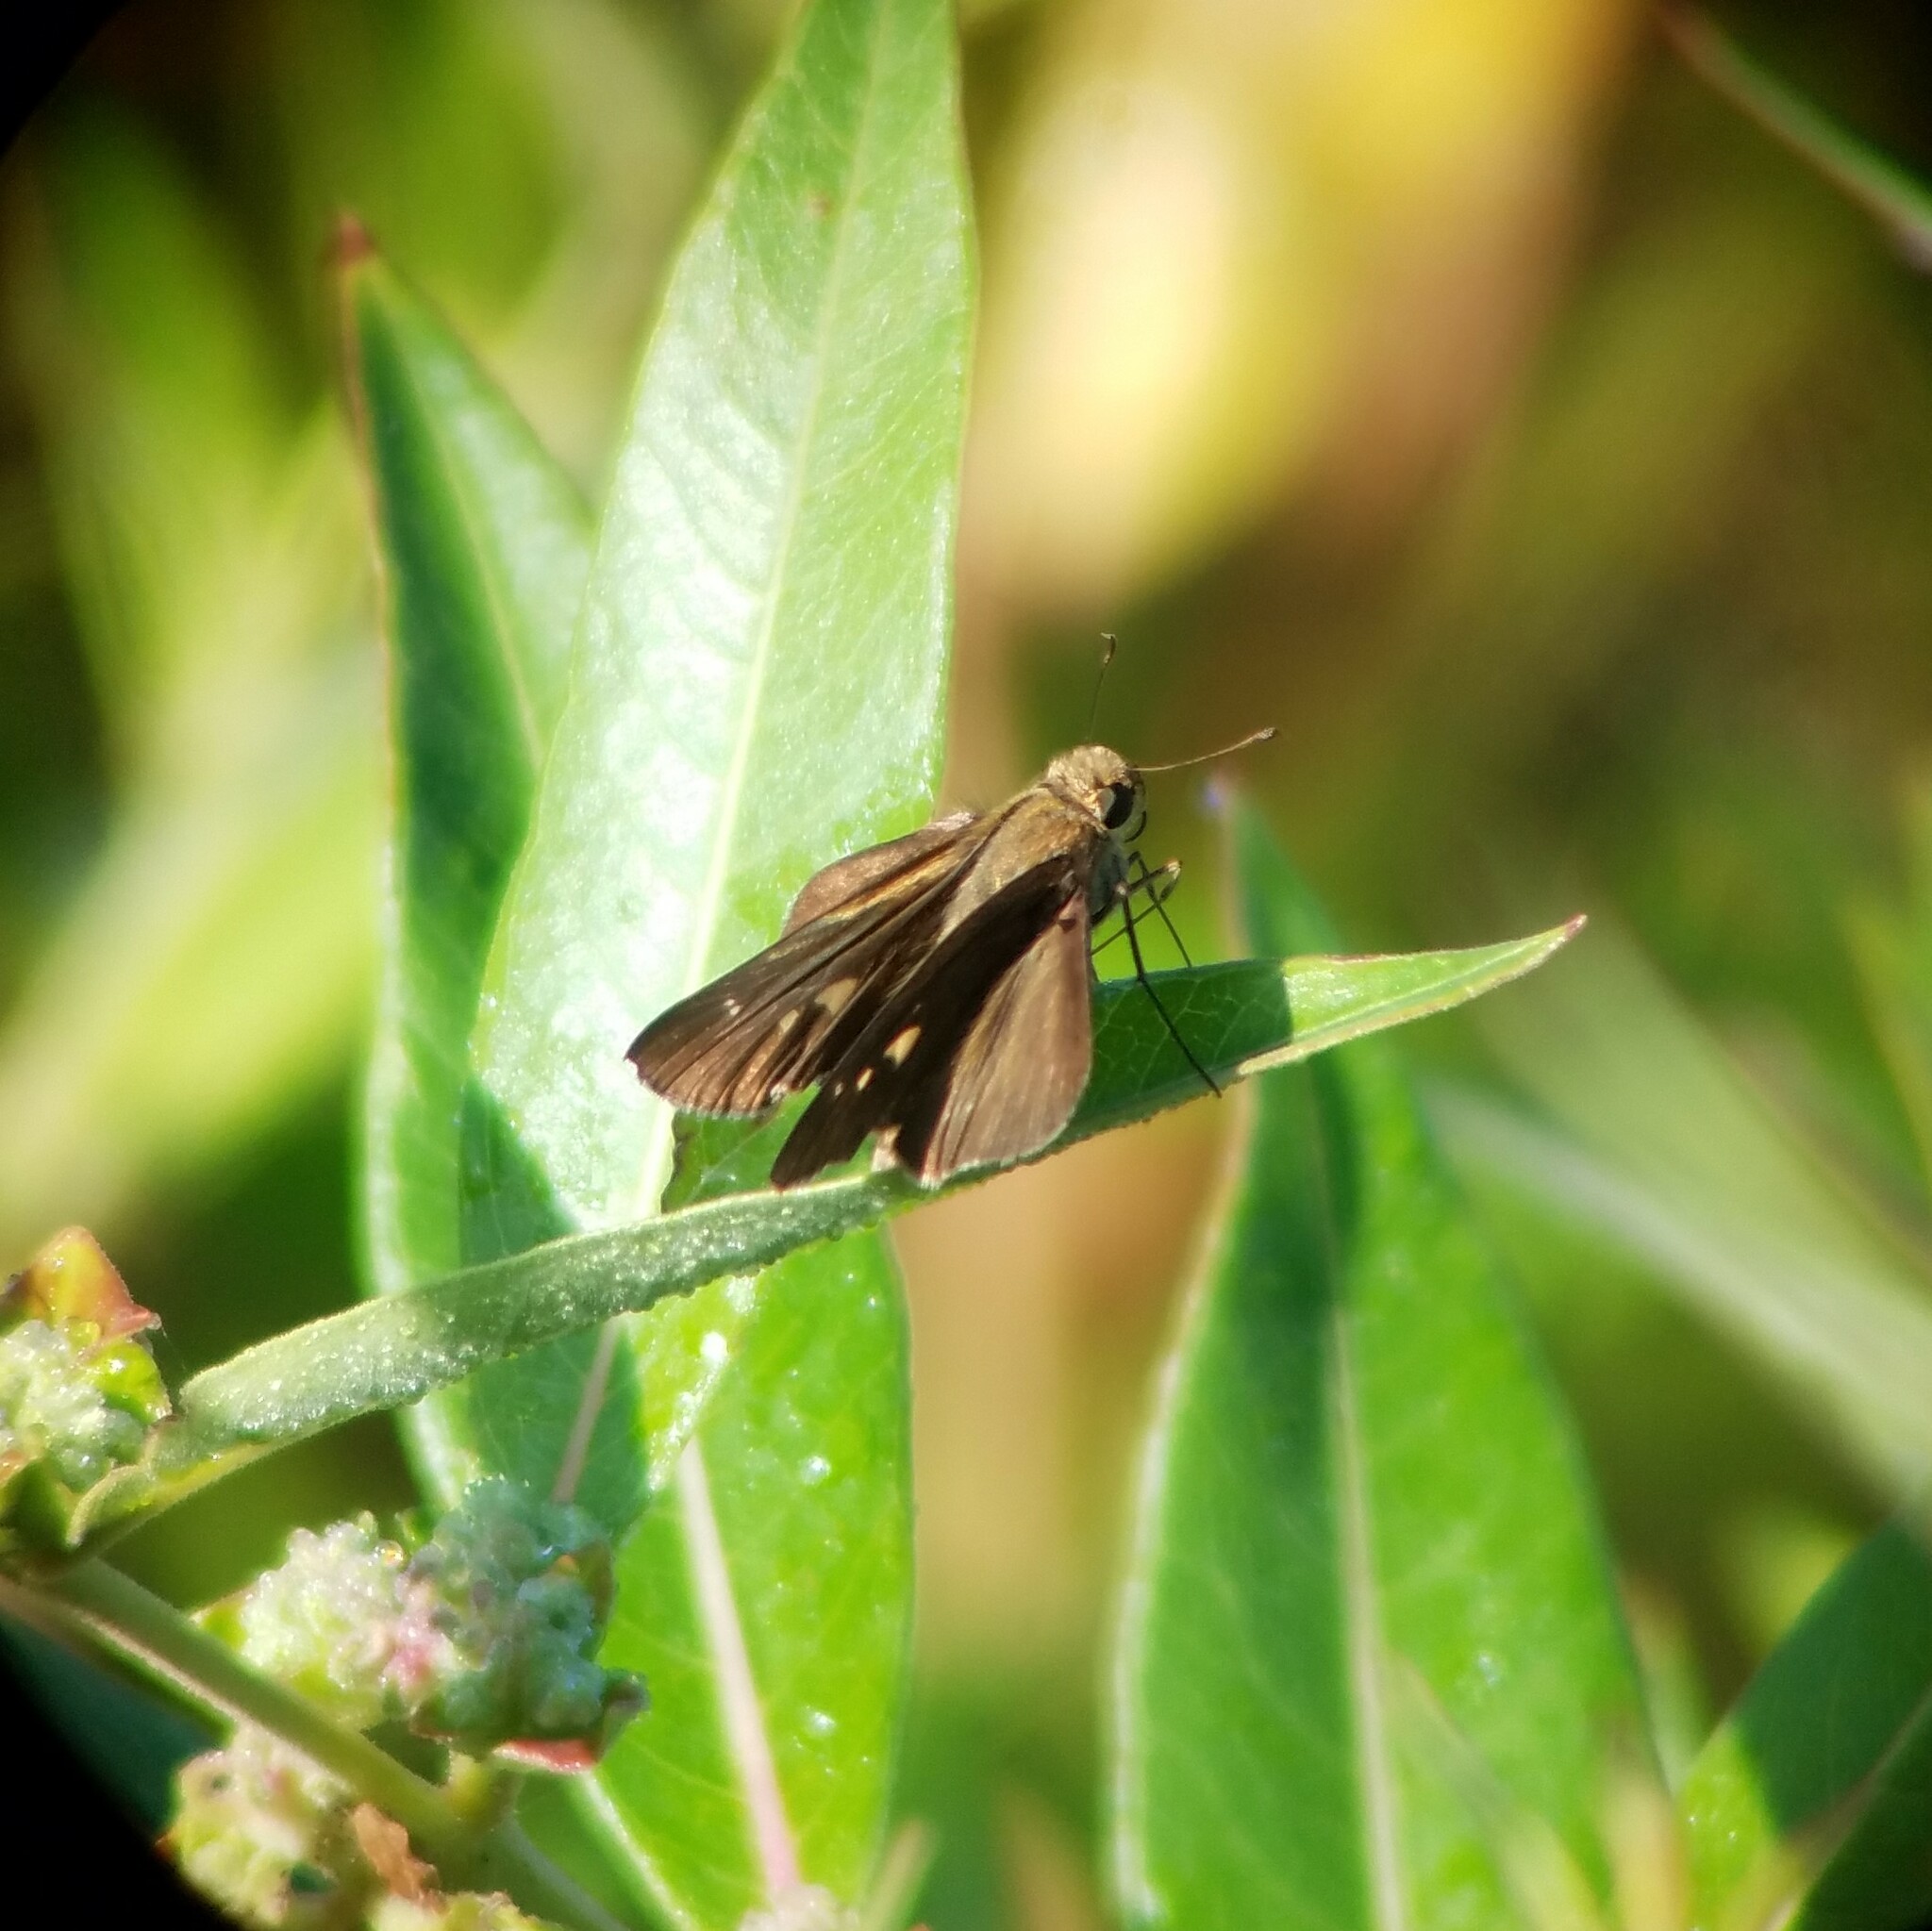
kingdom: Animalia
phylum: Arthropoda
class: Insecta
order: Lepidoptera
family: Hesperiidae
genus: Panoquina
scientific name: Panoquina ocola
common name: Ocola skipper
